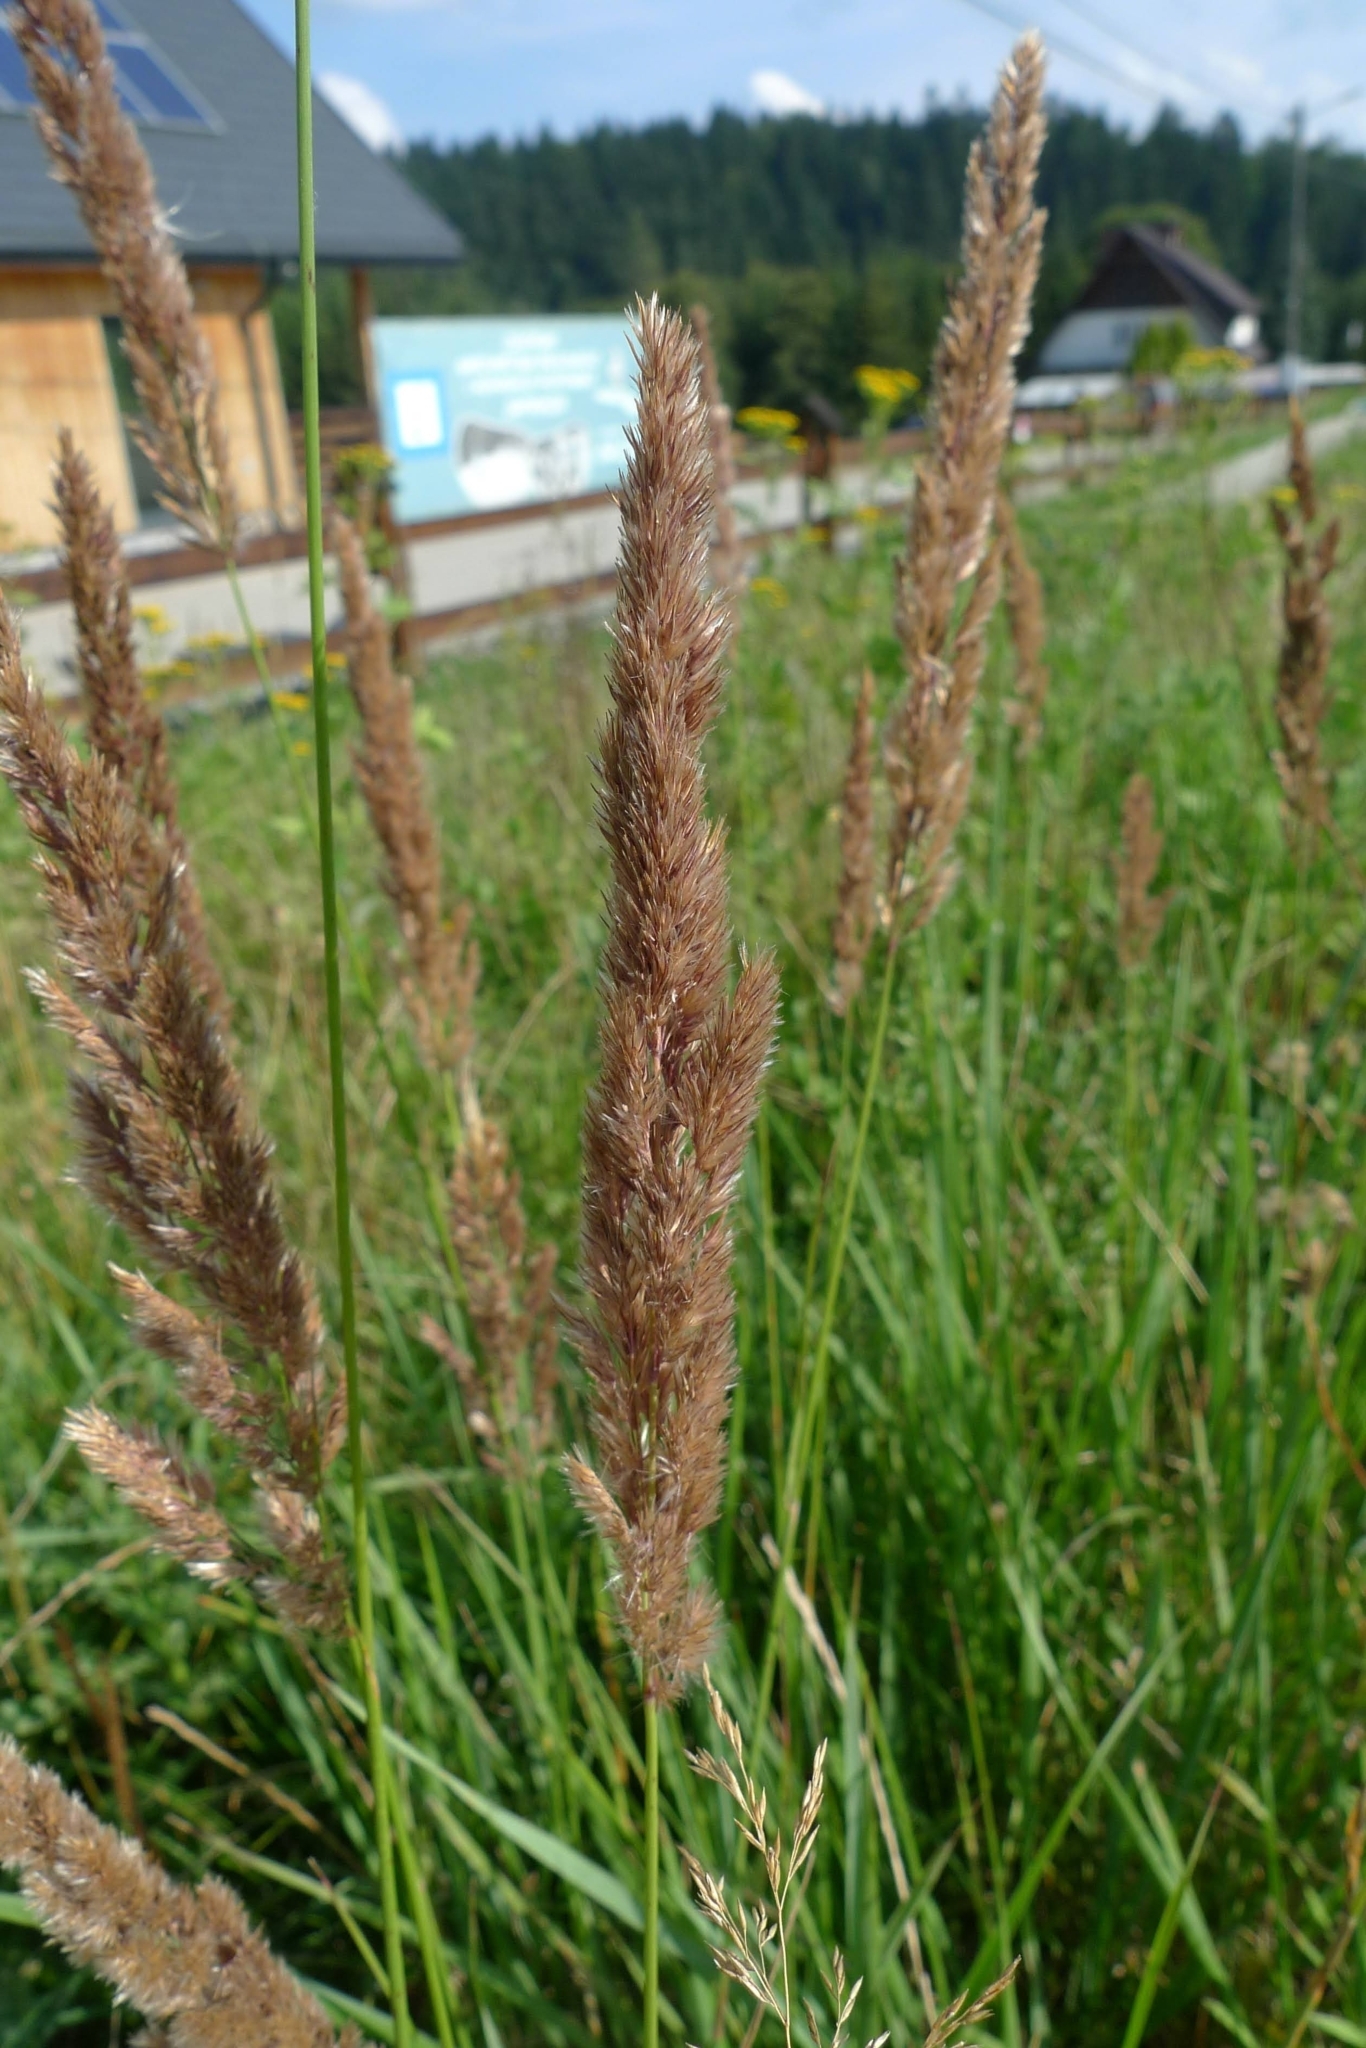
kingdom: Plantae
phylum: Tracheophyta
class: Liliopsida
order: Poales
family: Poaceae
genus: Calamagrostis
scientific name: Calamagrostis epigejos
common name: Wood small-reed
